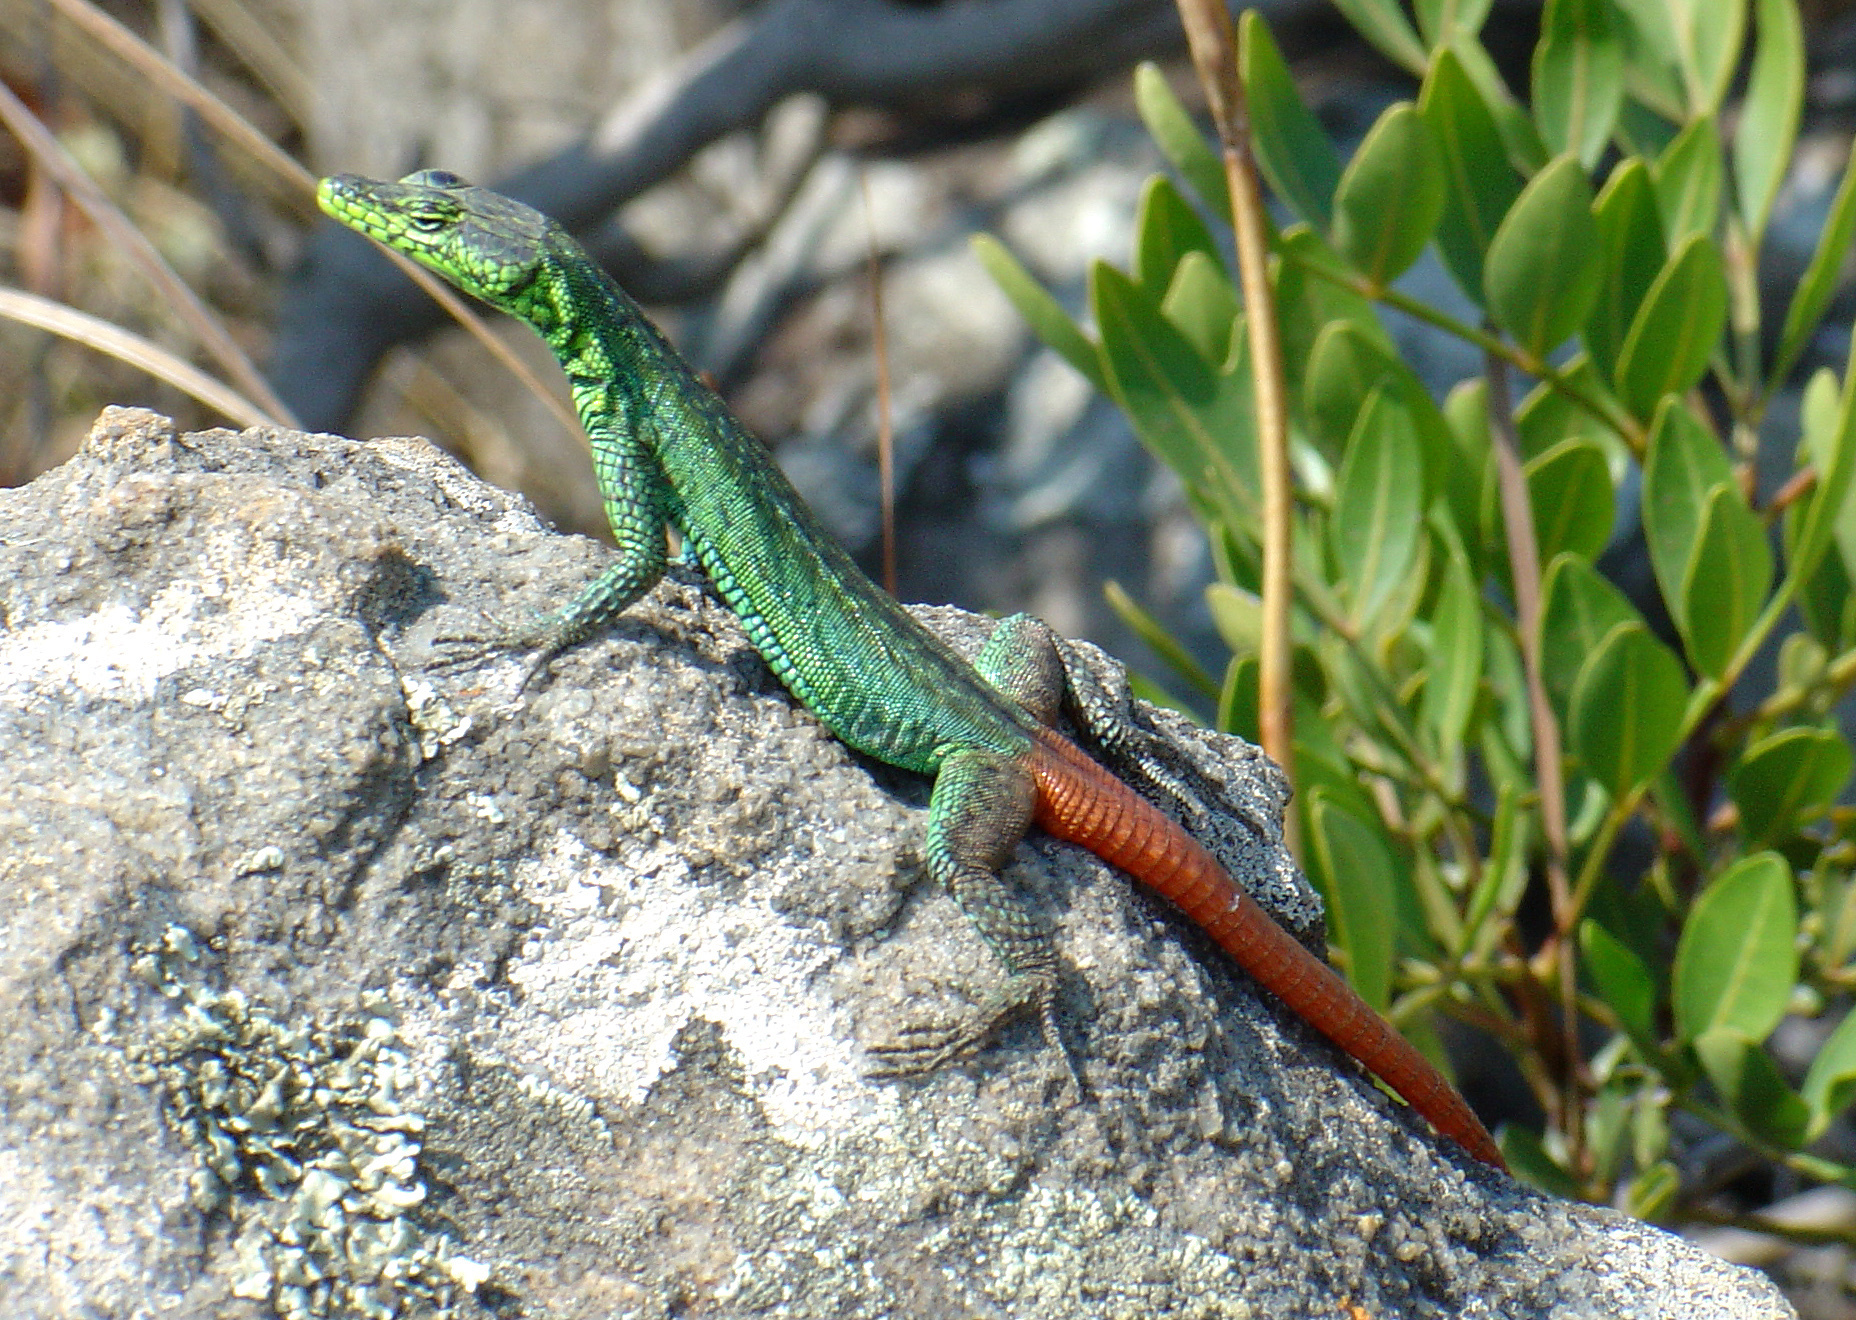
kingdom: Animalia
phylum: Chordata
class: Squamata
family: Cordylidae
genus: Platysaurus
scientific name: Platysaurus intermedius
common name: Common flat lizard
